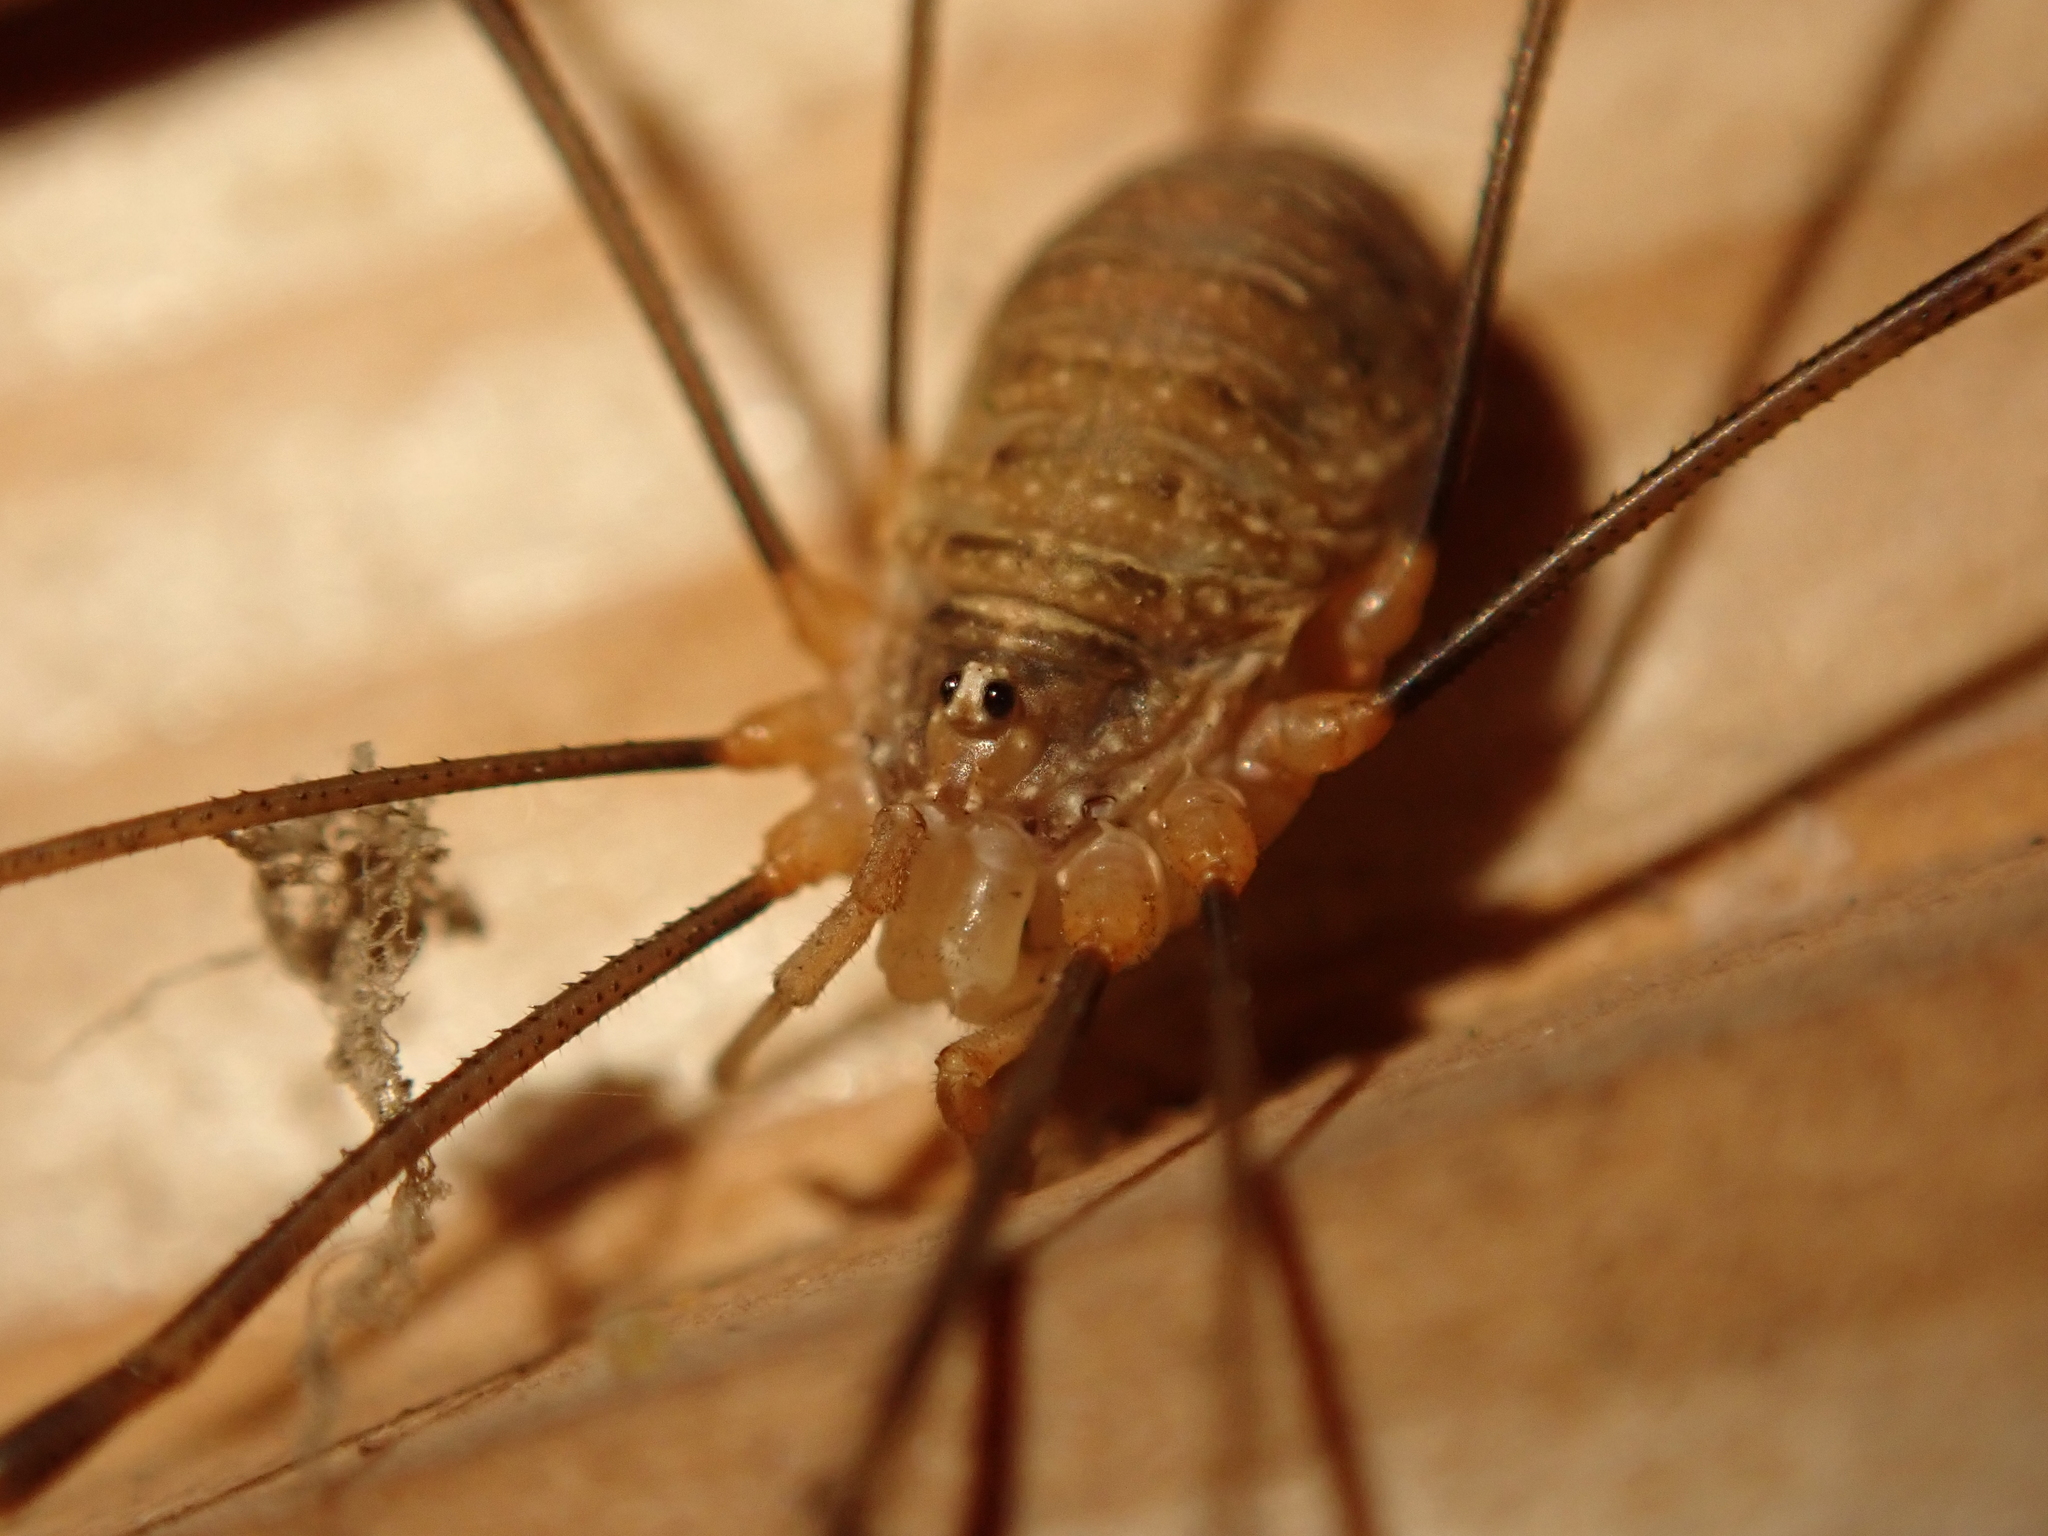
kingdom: Animalia
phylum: Arthropoda
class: Arachnida
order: Opiliones
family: Phalangiidae
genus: Opilio
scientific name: Opilio canestrinii
